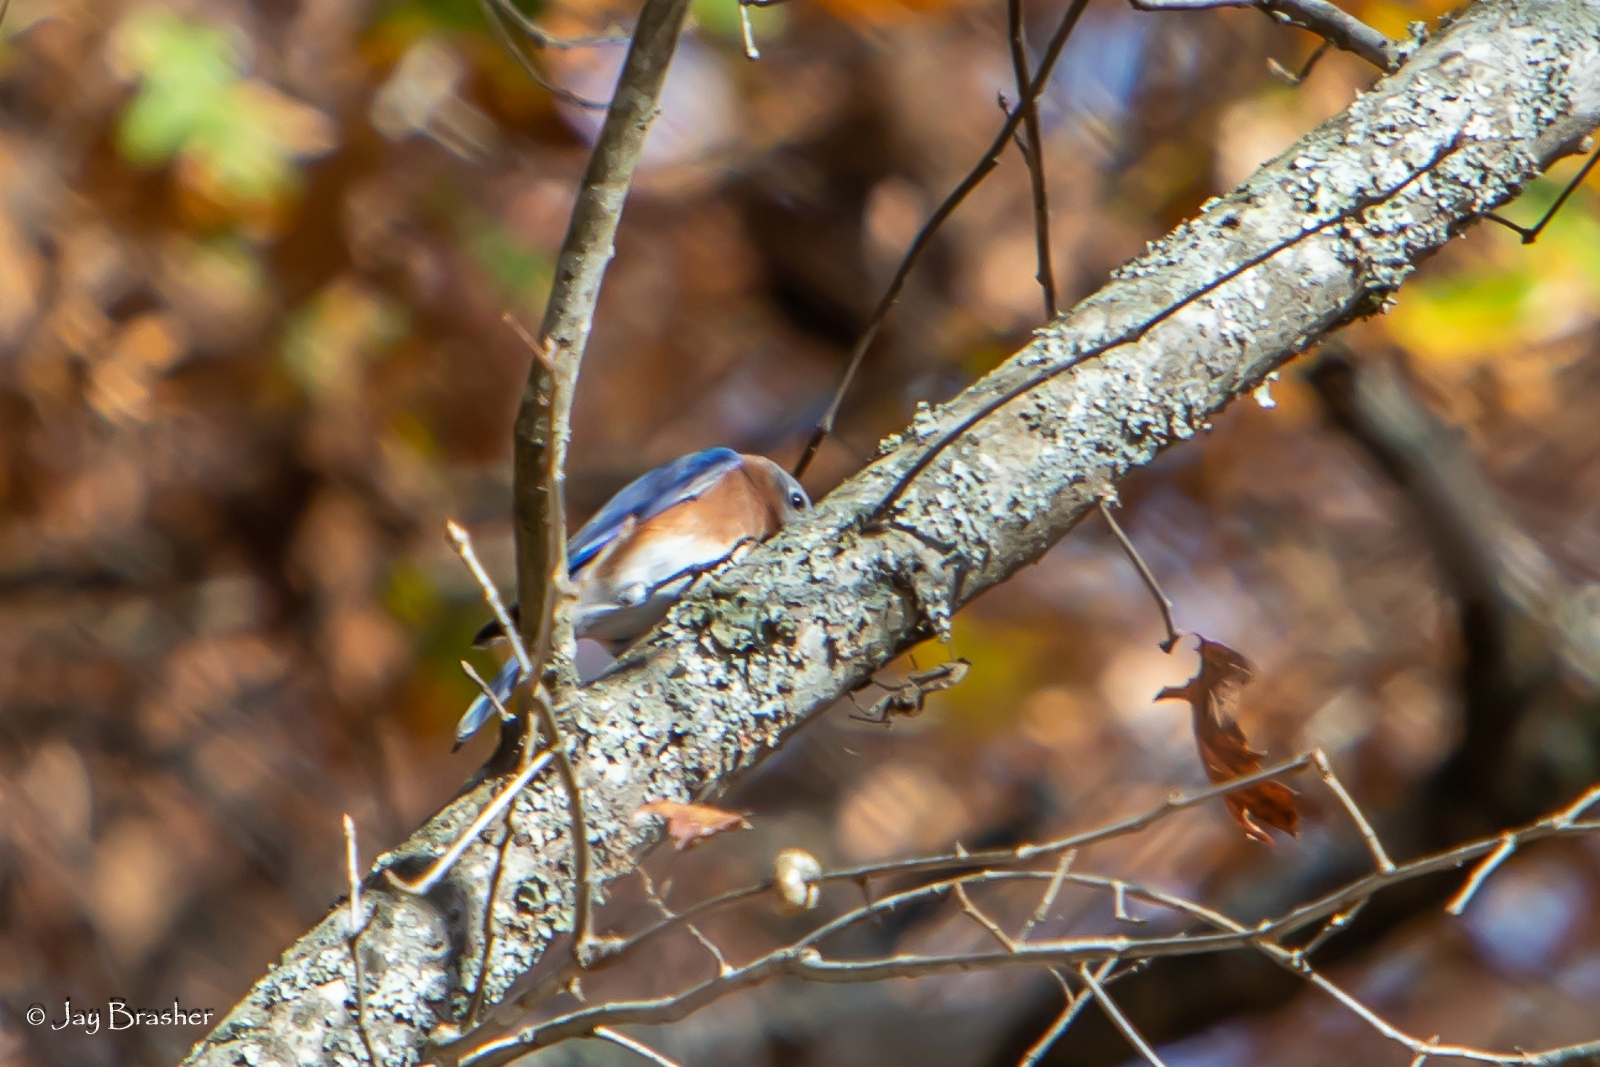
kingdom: Animalia
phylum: Chordata
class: Aves
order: Passeriformes
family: Turdidae
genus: Sialia
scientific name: Sialia sialis
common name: Eastern bluebird
